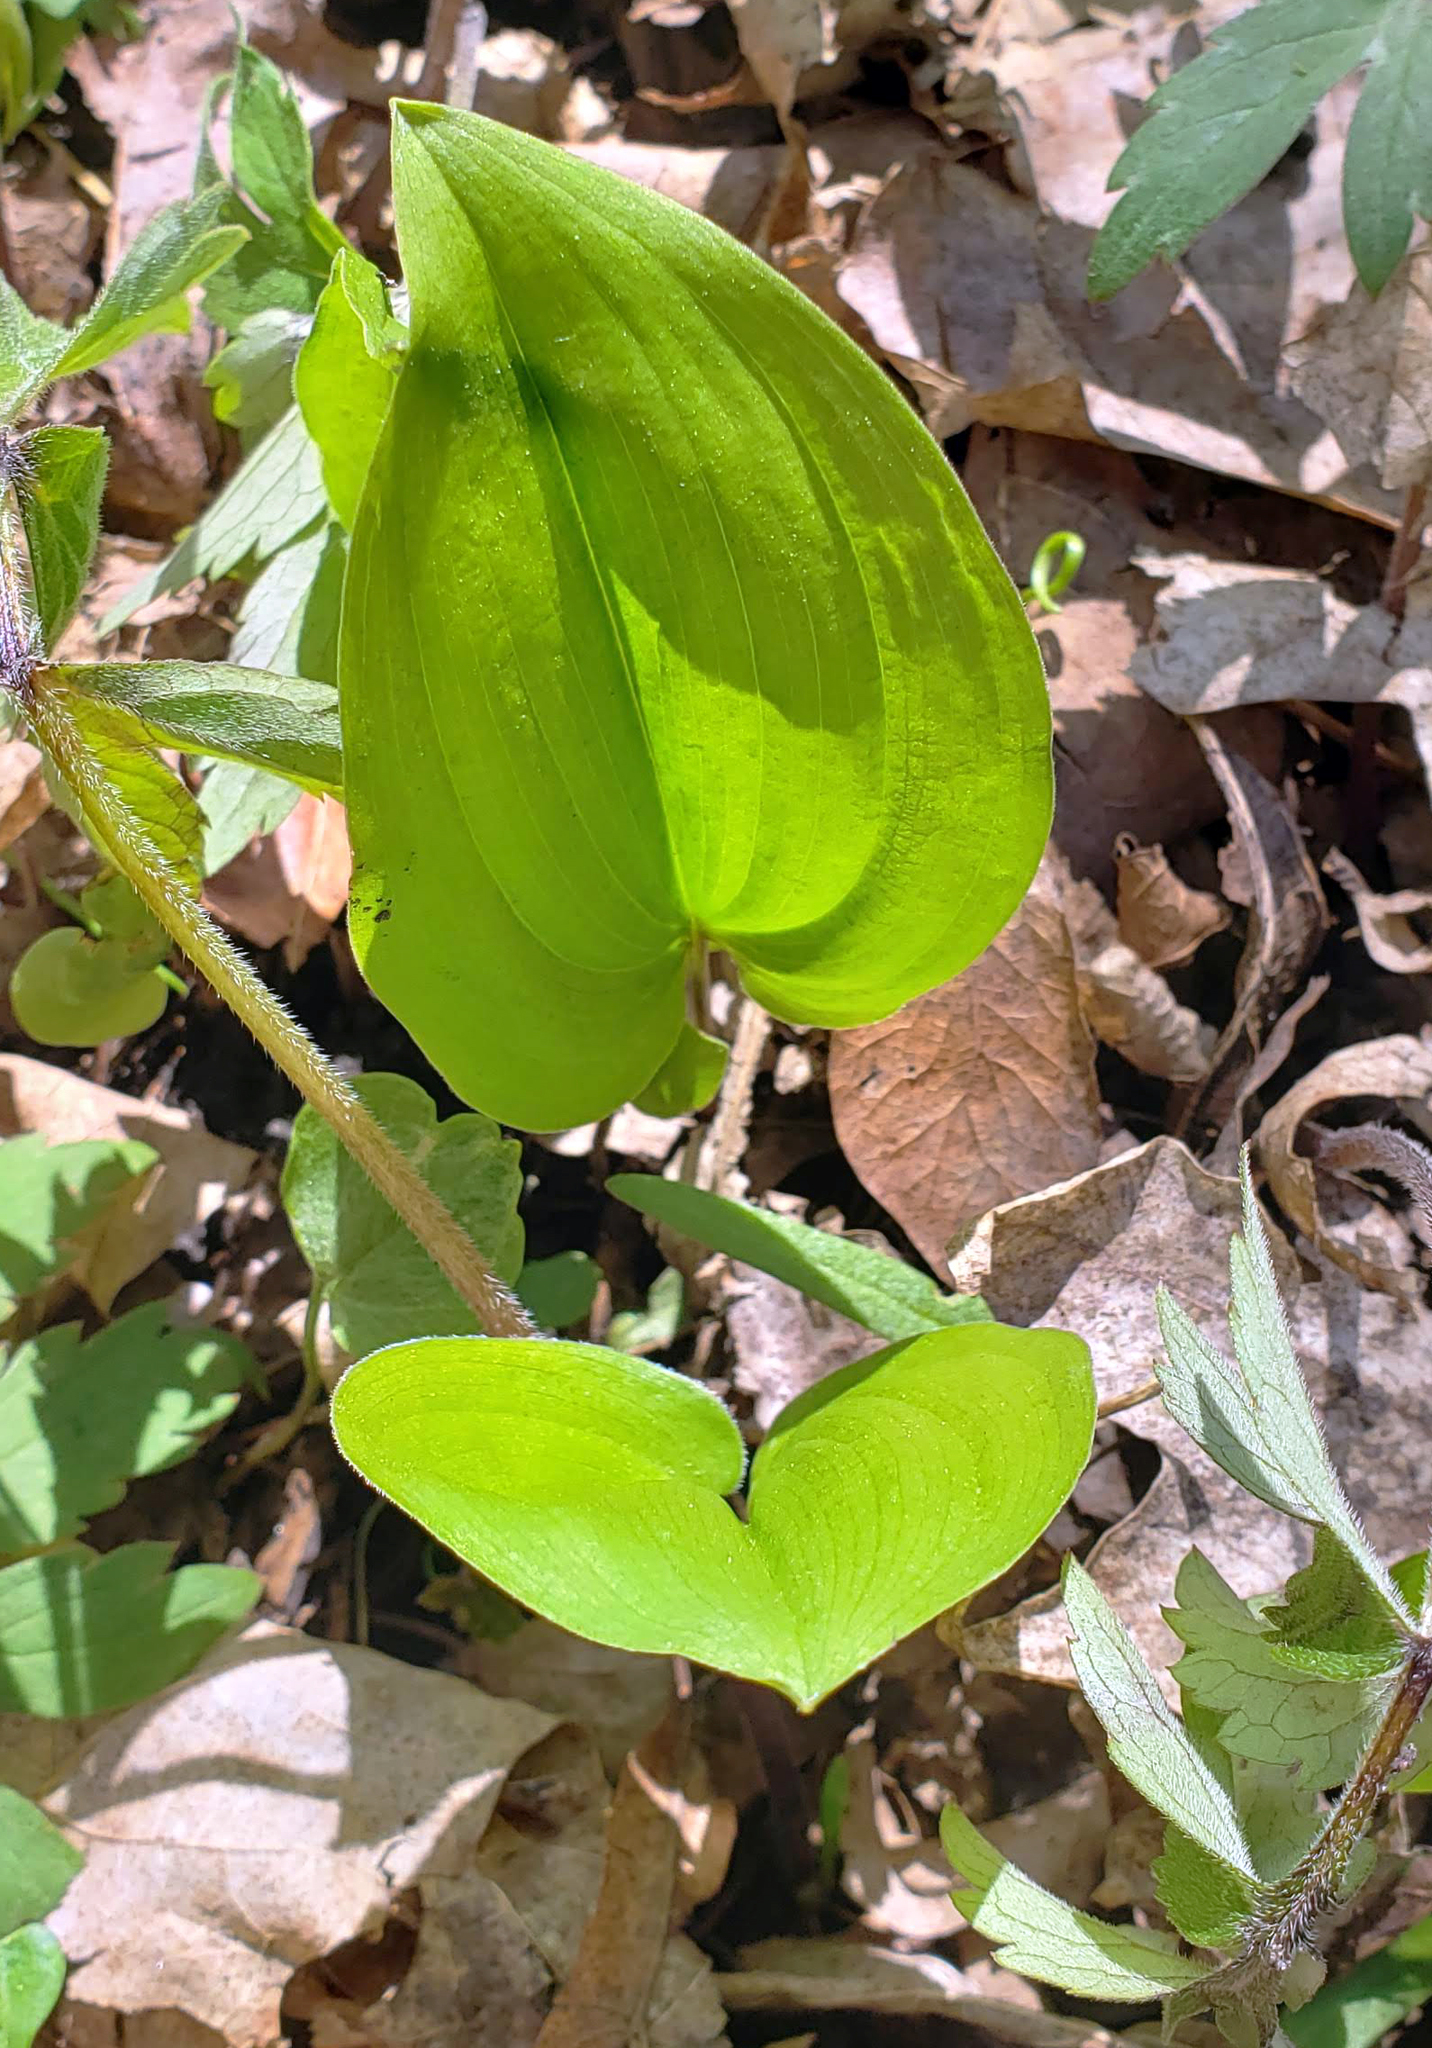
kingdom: Plantae
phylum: Tracheophyta
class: Liliopsida
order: Asparagales
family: Asparagaceae
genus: Maianthemum
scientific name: Maianthemum canadense
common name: False lily-of-the-valley
